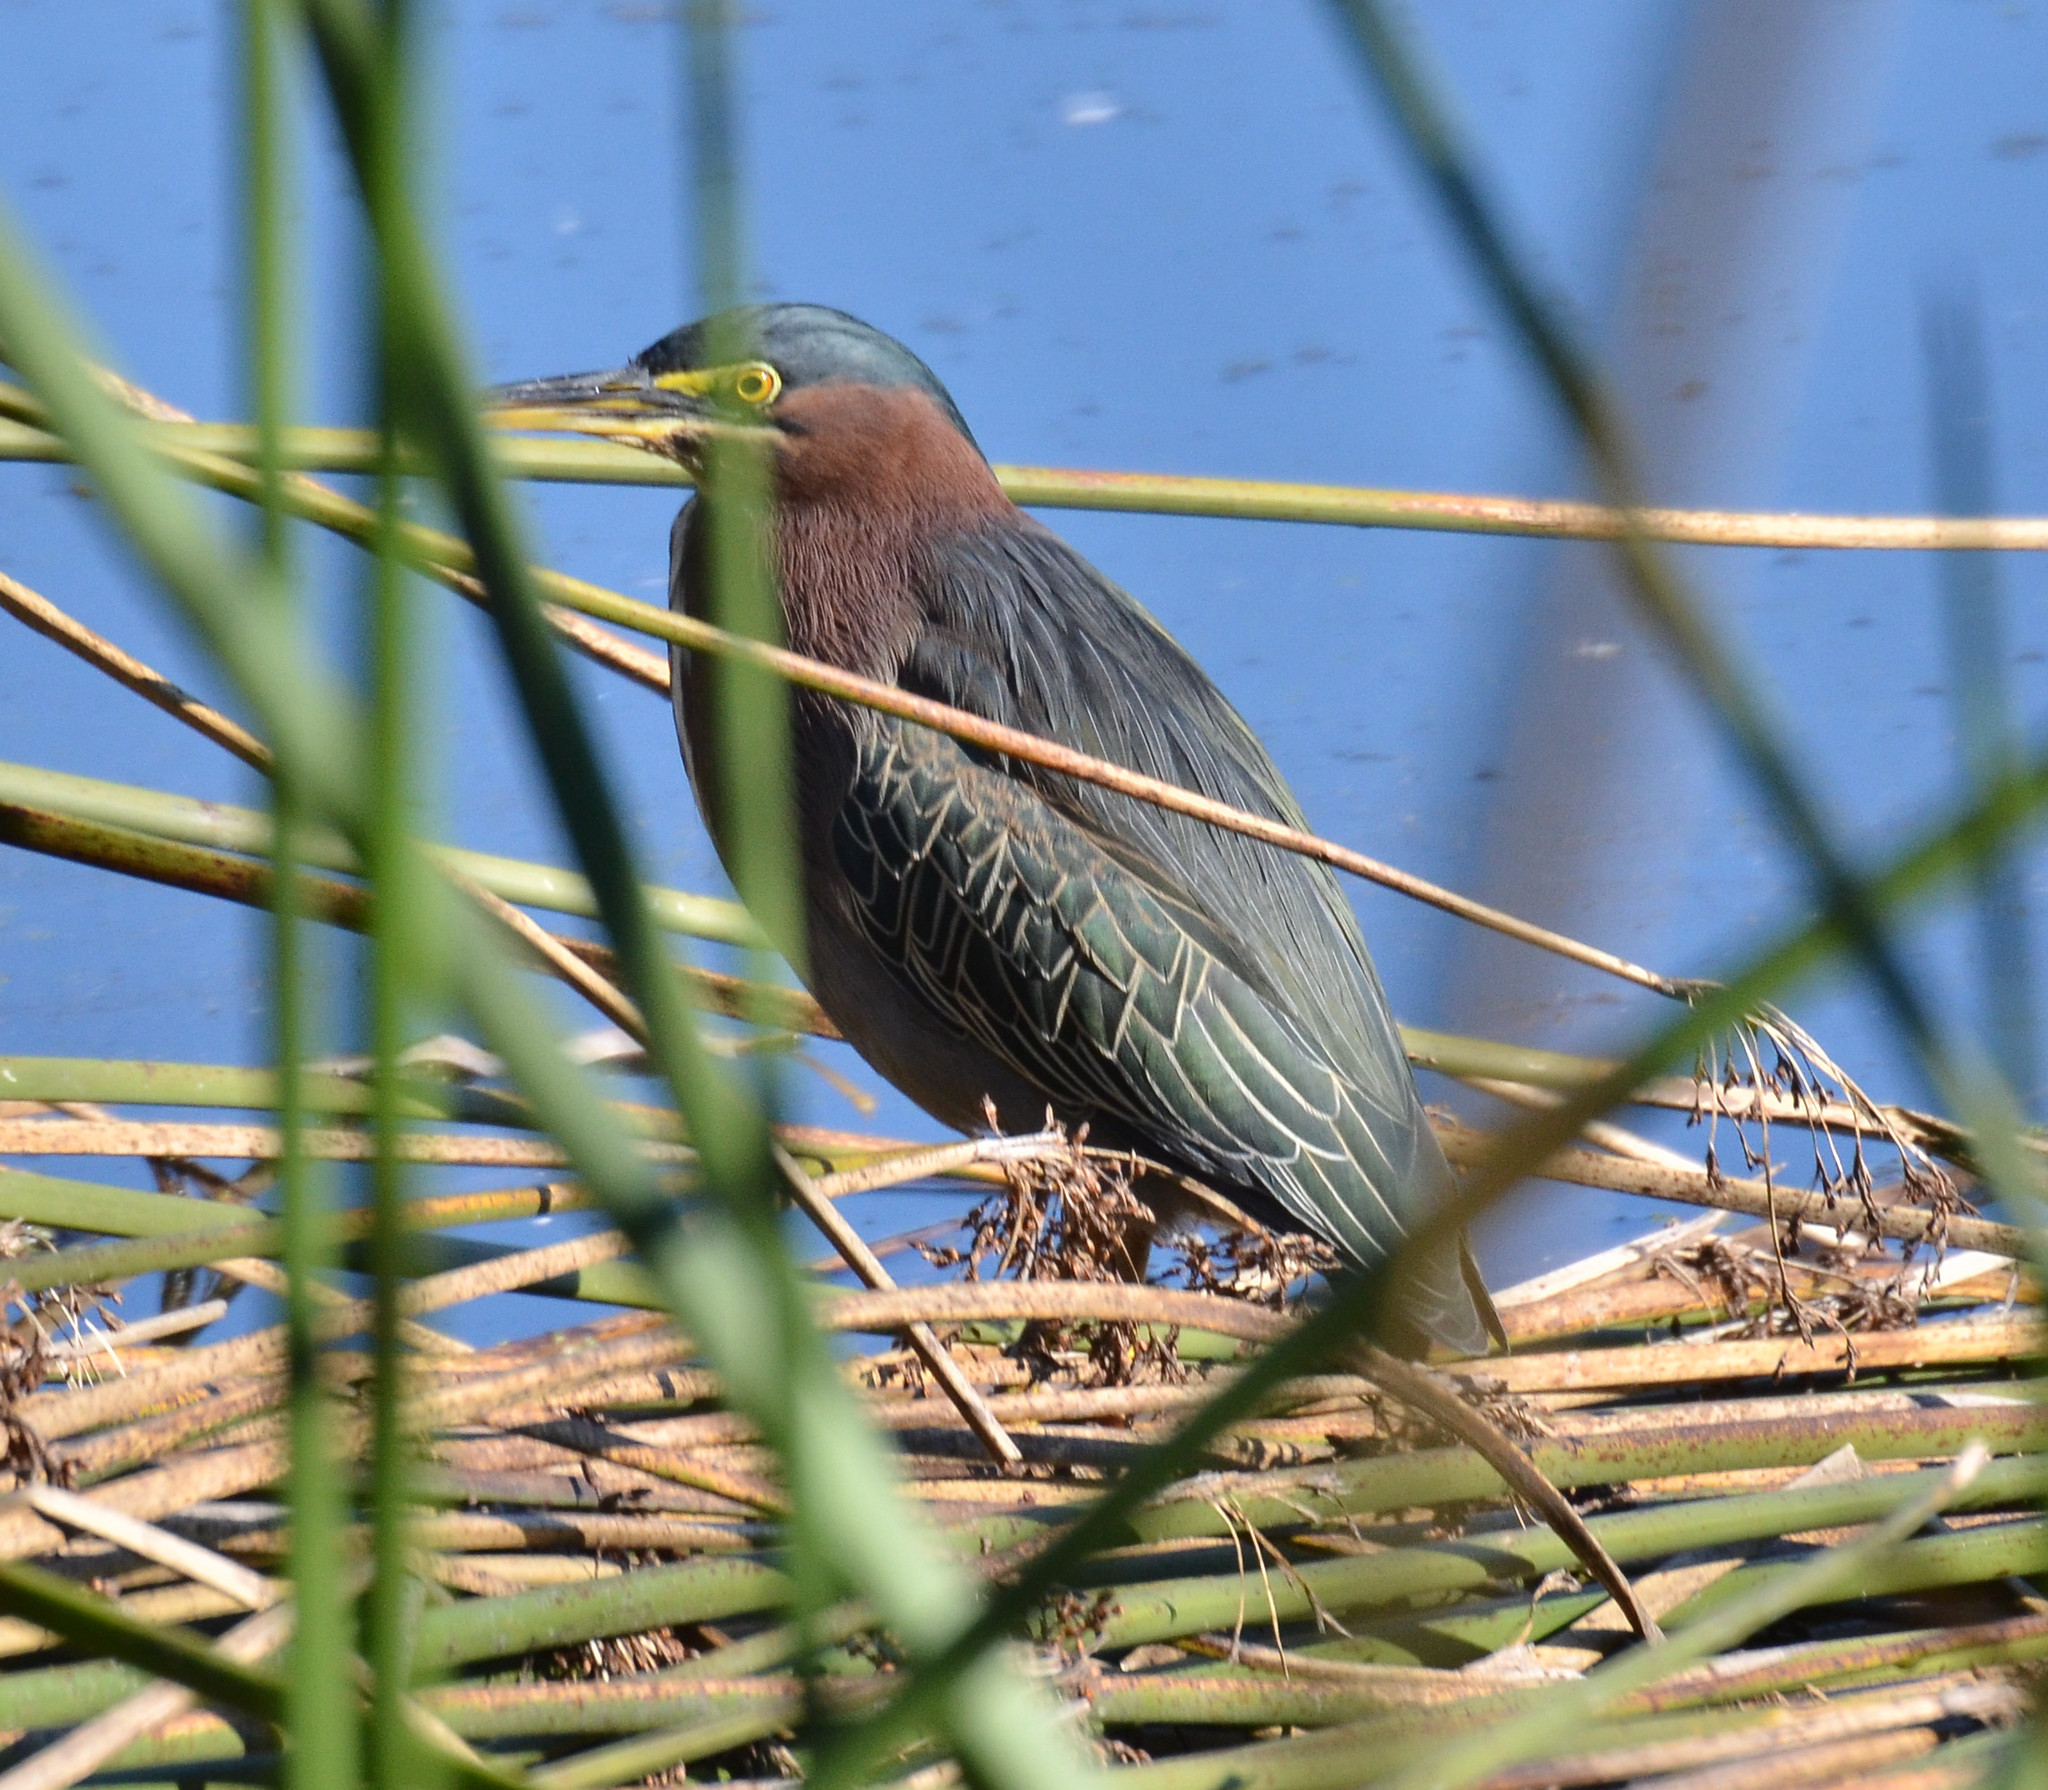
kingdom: Animalia
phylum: Chordata
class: Aves
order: Pelecaniformes
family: Ardeidae
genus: Butorides
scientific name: Butorides virescens
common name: Green heron
